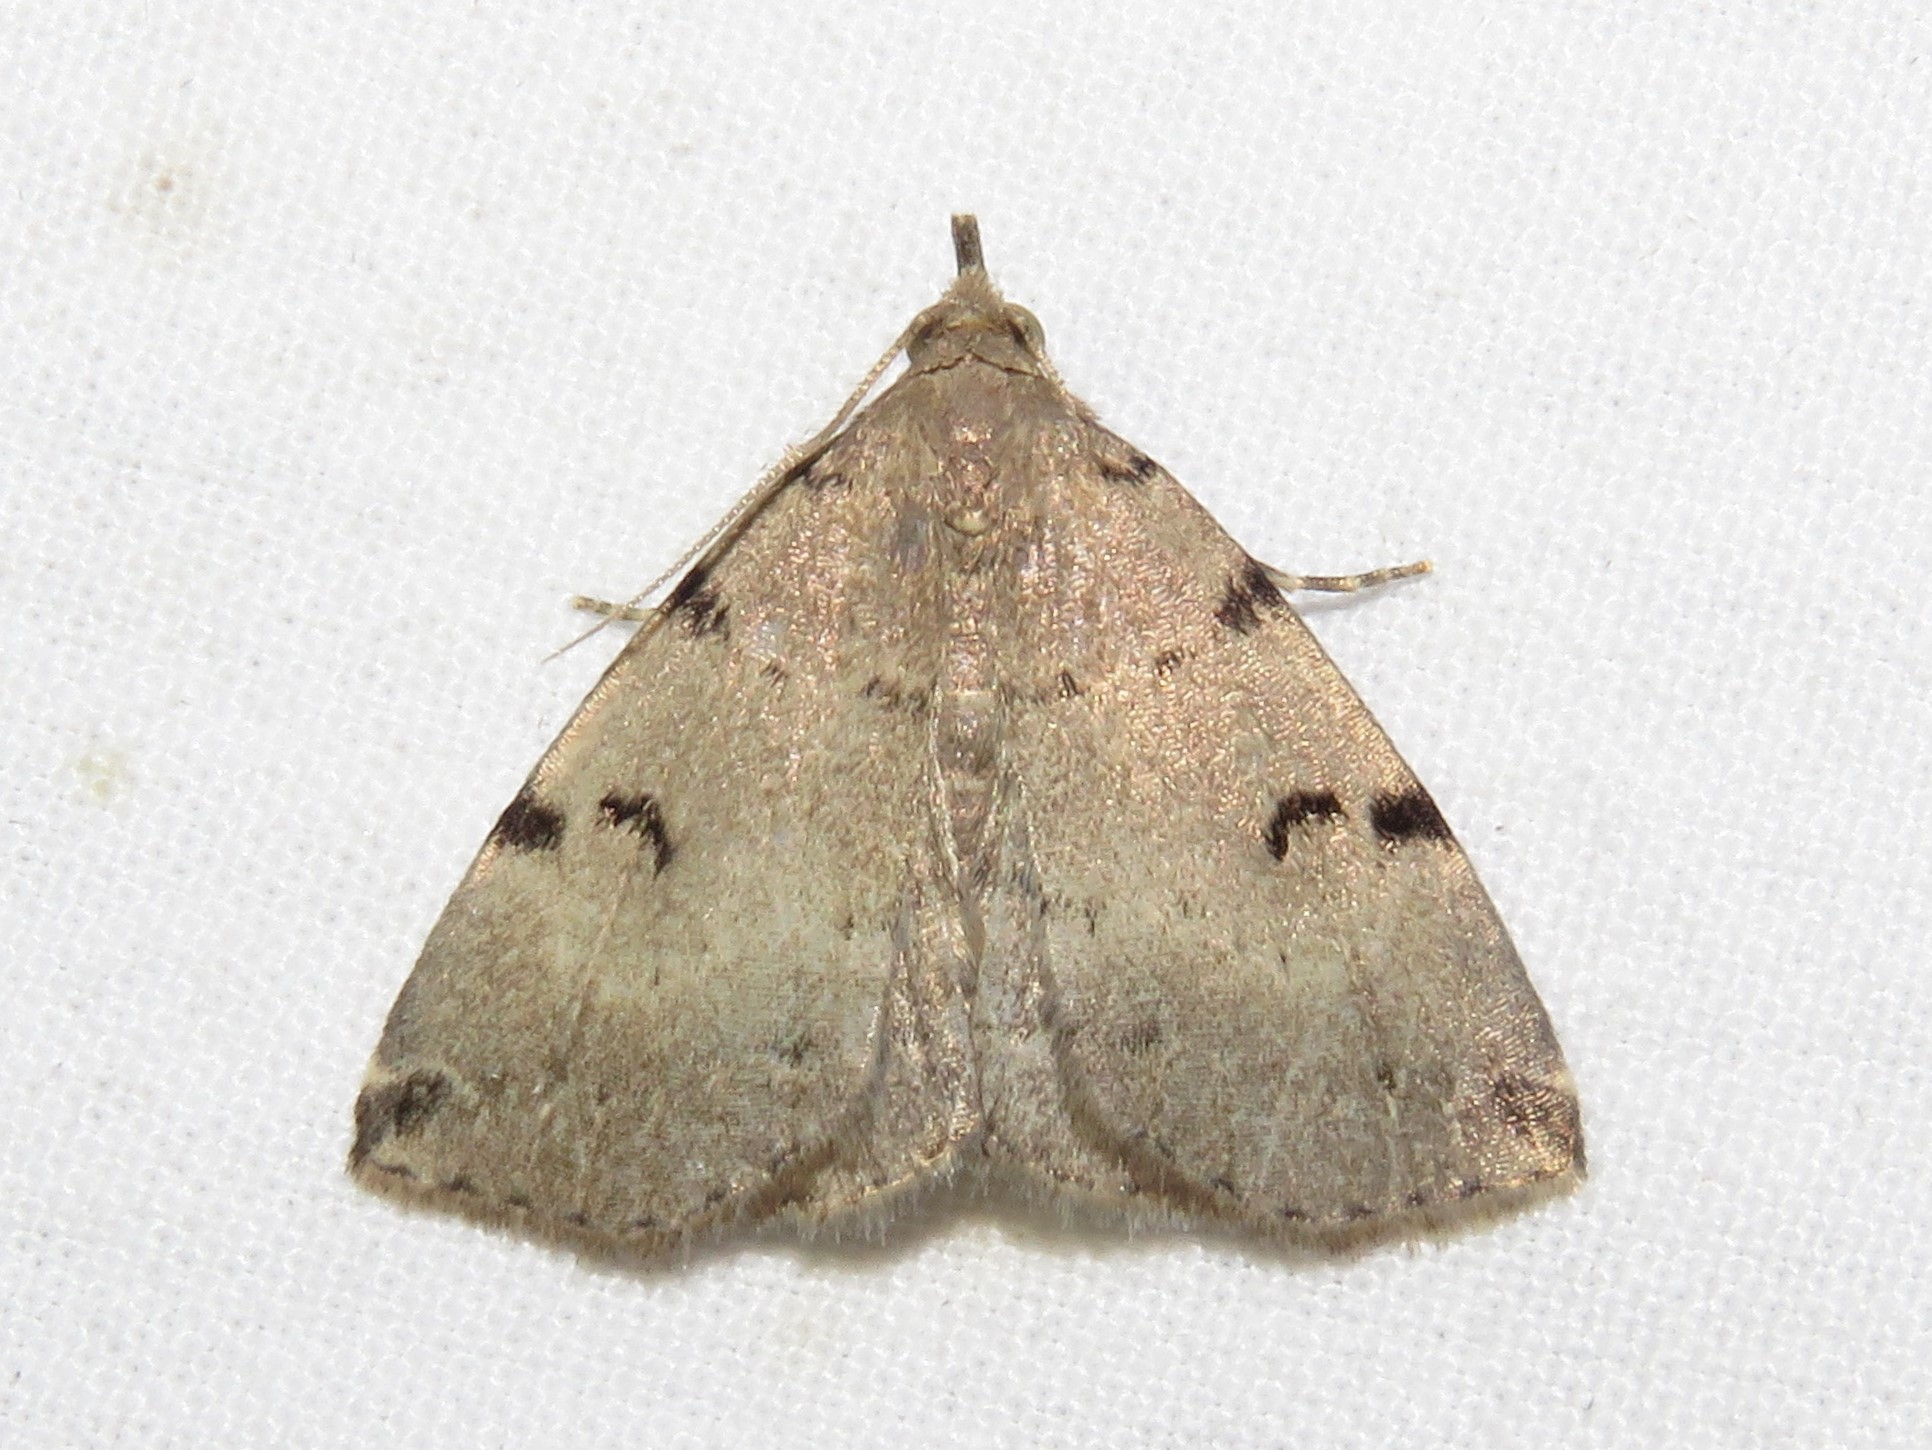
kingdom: Animalia
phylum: Arthropoda
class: Insecta
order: Lepidoptera
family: Erebidae
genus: Zanclognatha
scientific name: Zanclognatha lituralis
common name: Lettered fan-foot
